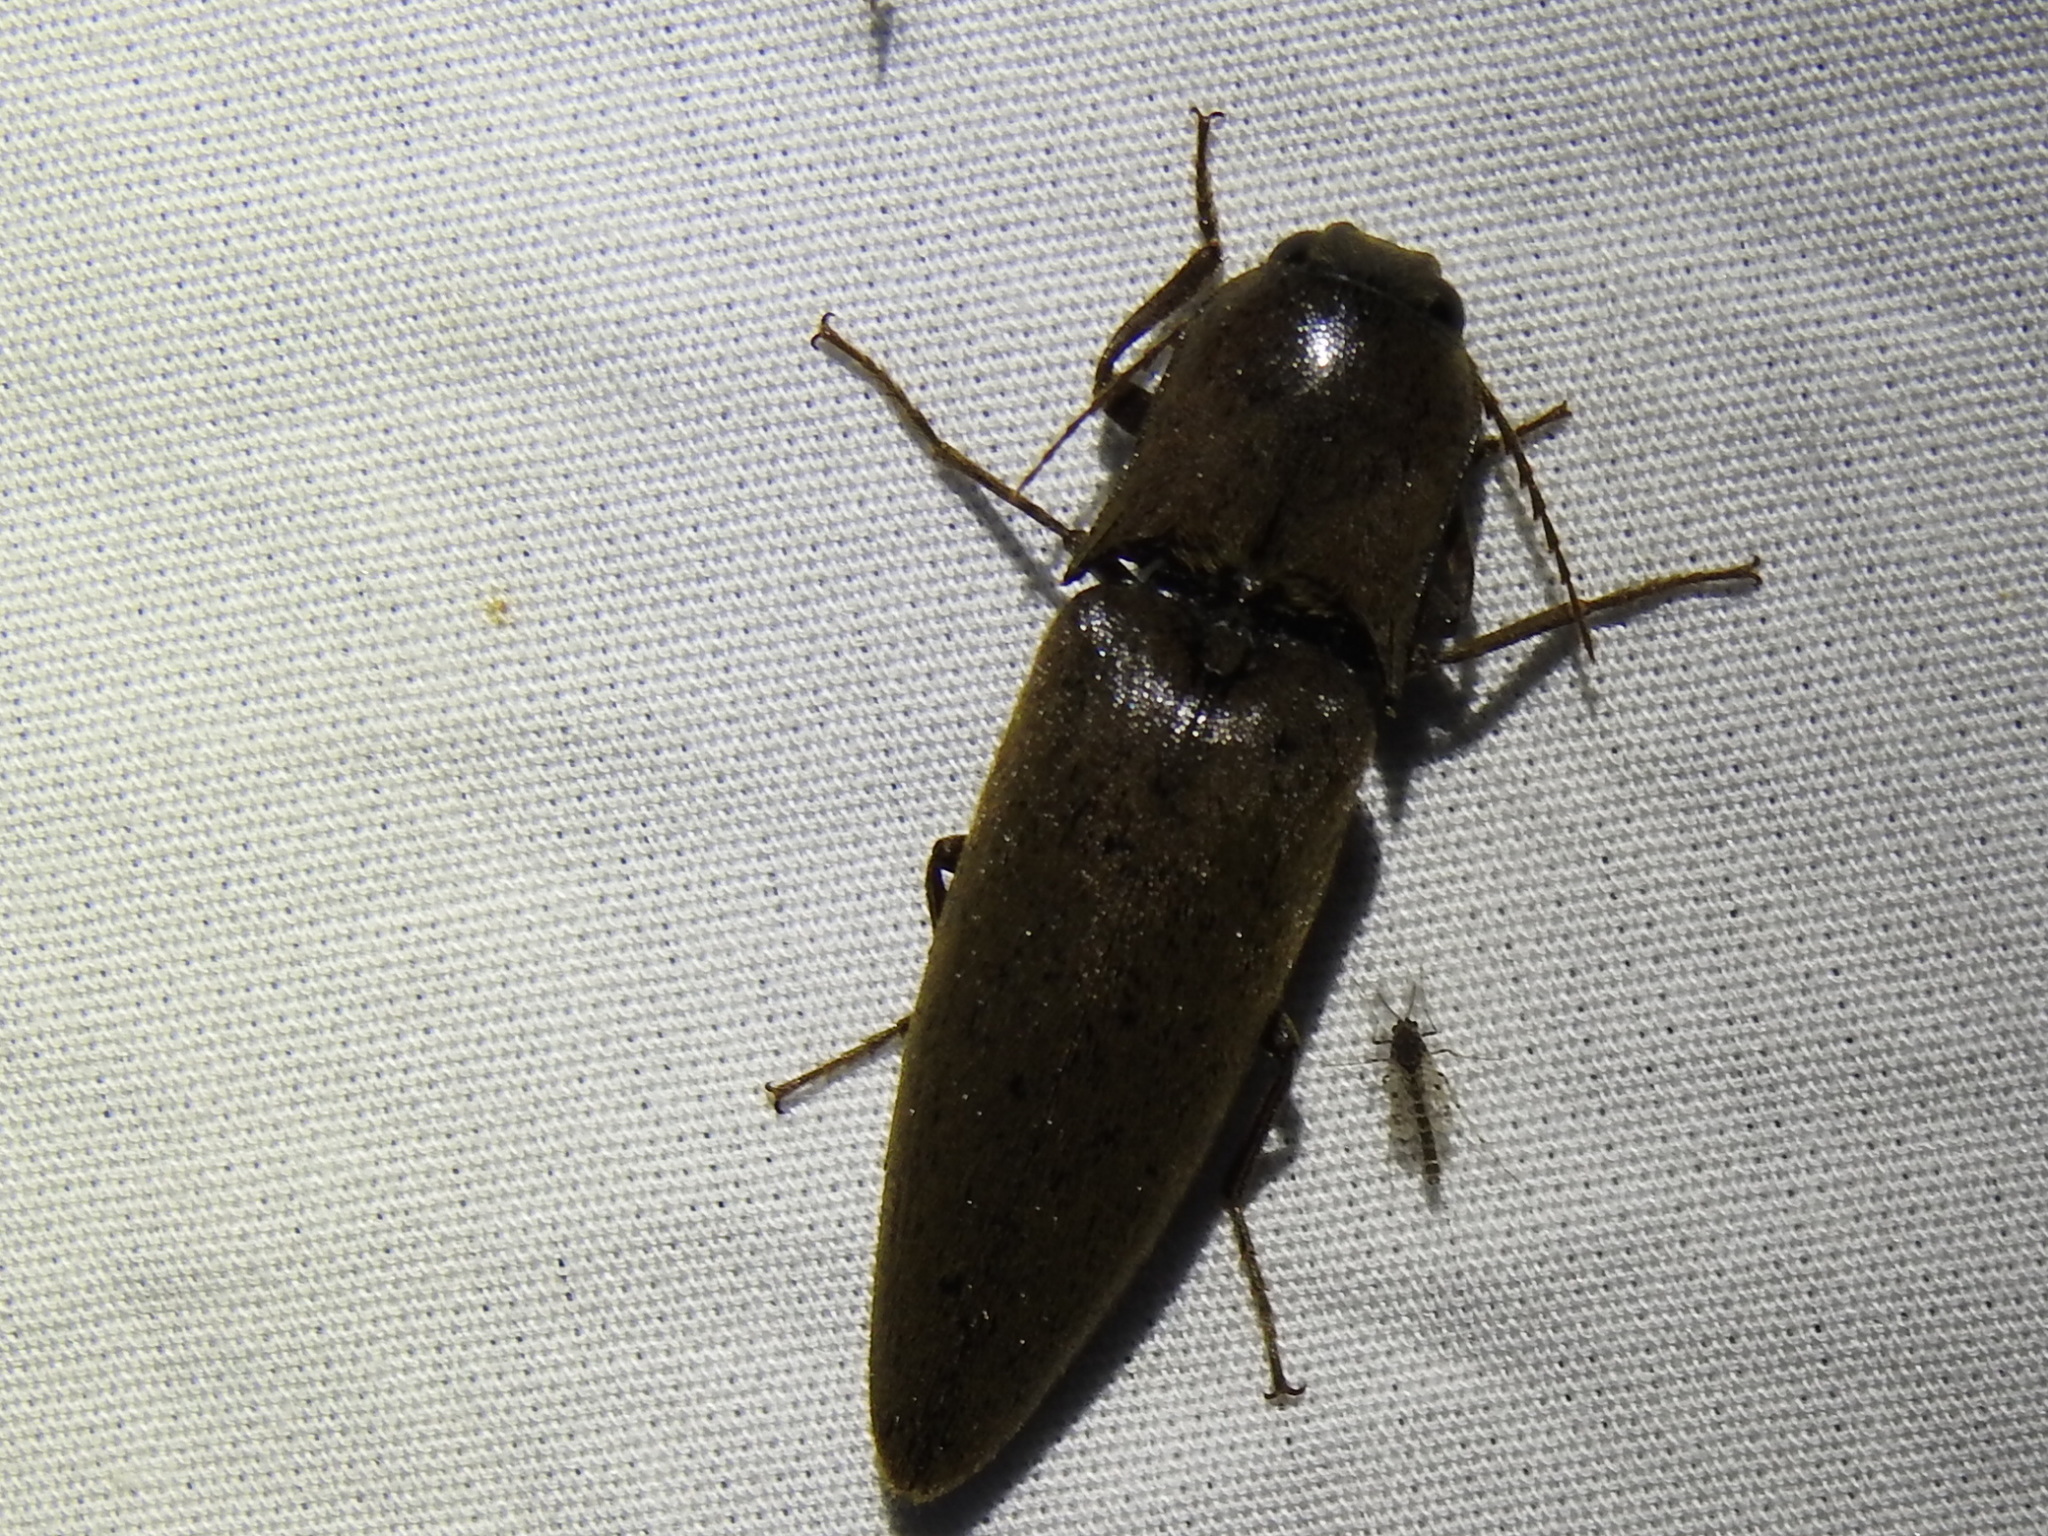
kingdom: Animalia
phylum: Arthropoda
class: Insecta
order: Coleoptera
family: Elateridae
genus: Orthostethus
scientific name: Orthostethus infuscatus
